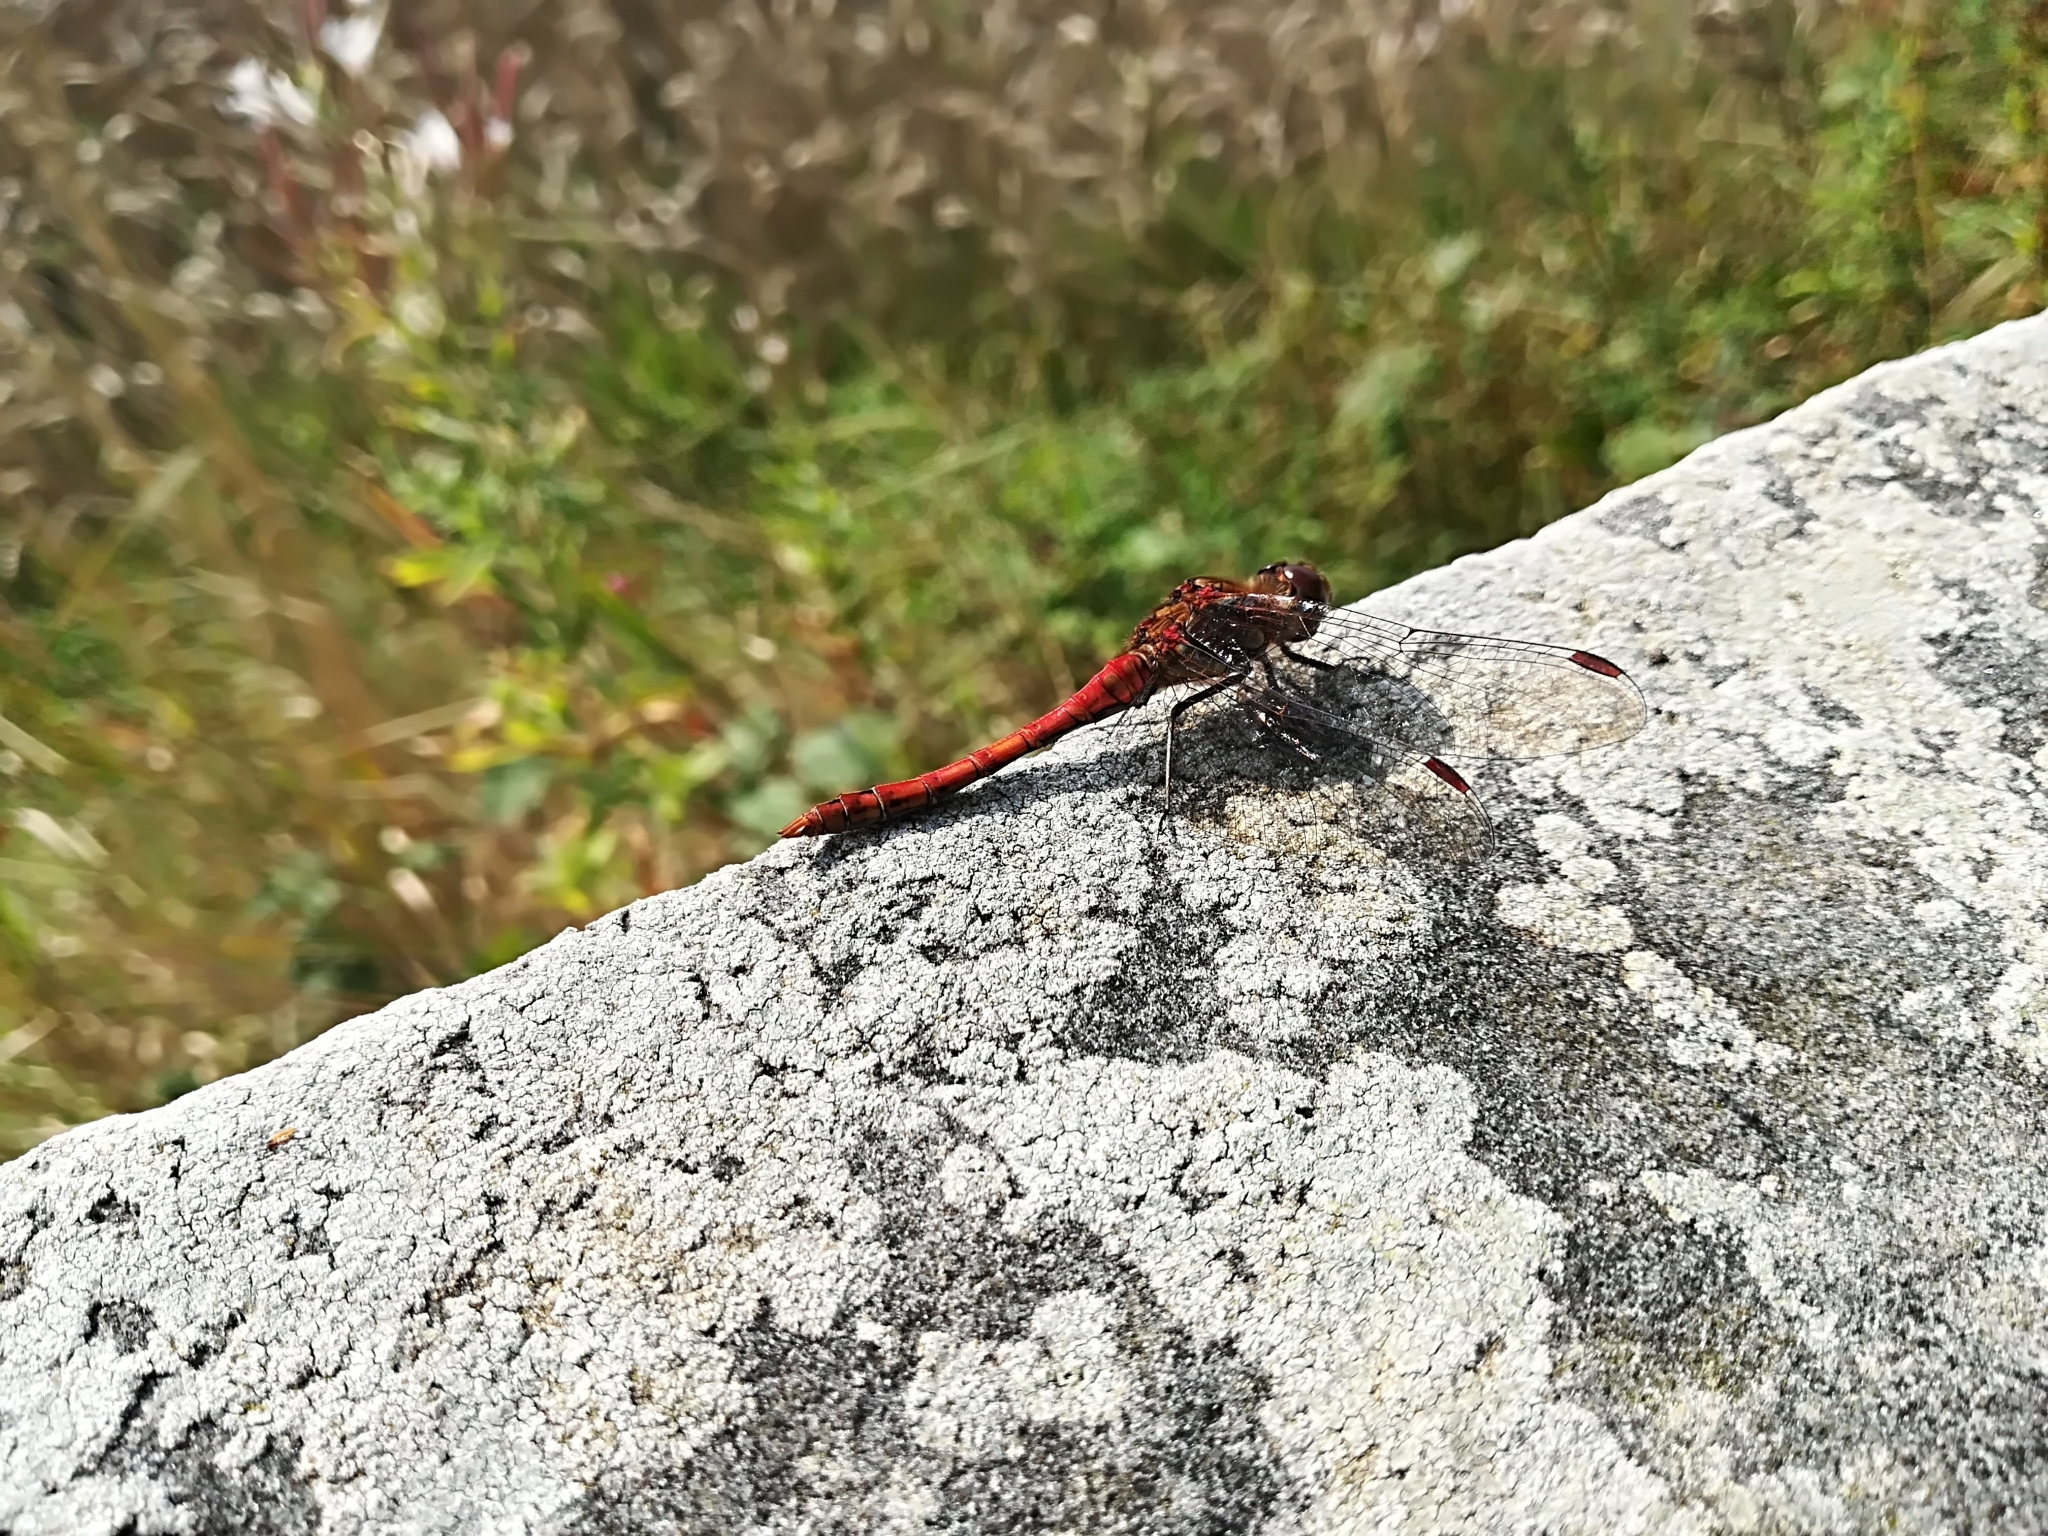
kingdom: Animalia
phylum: Arthropoda
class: Insecta
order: Odonata
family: Libellulidae
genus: Sympetrum
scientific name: Sympetrum striolatum
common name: Common darter
